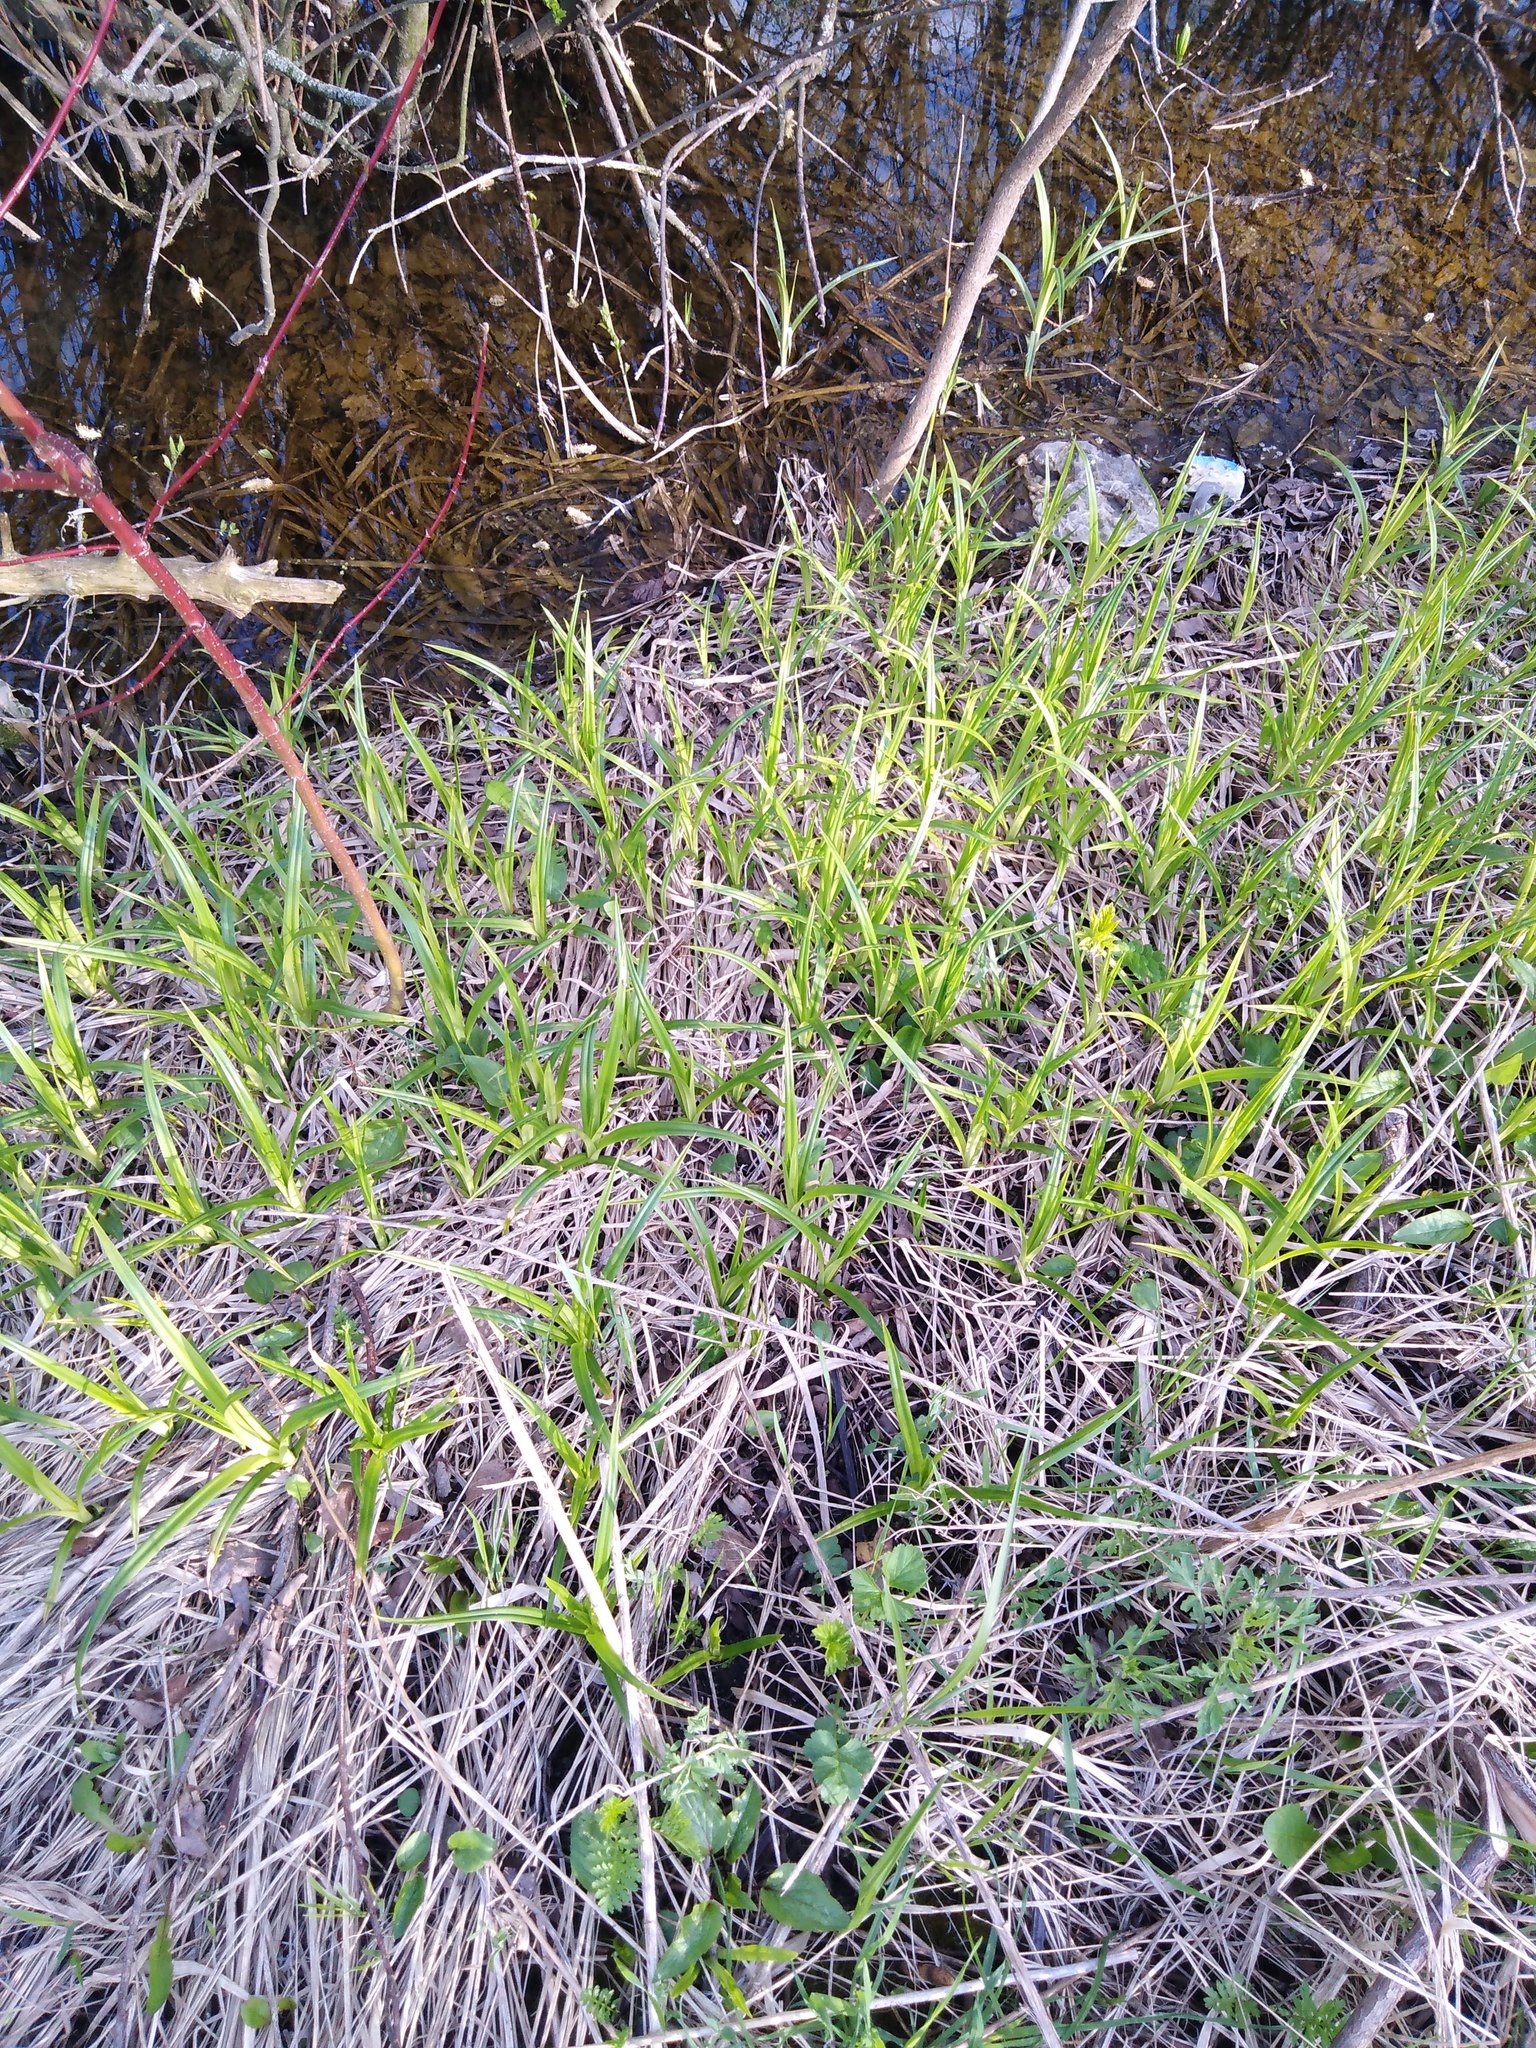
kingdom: Plantae
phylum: Tracheophyta
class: Liliopsida
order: Poales
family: Cyperaceae
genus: Scirpus
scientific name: Scirpus sylvaticus
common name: Wood club-rush
